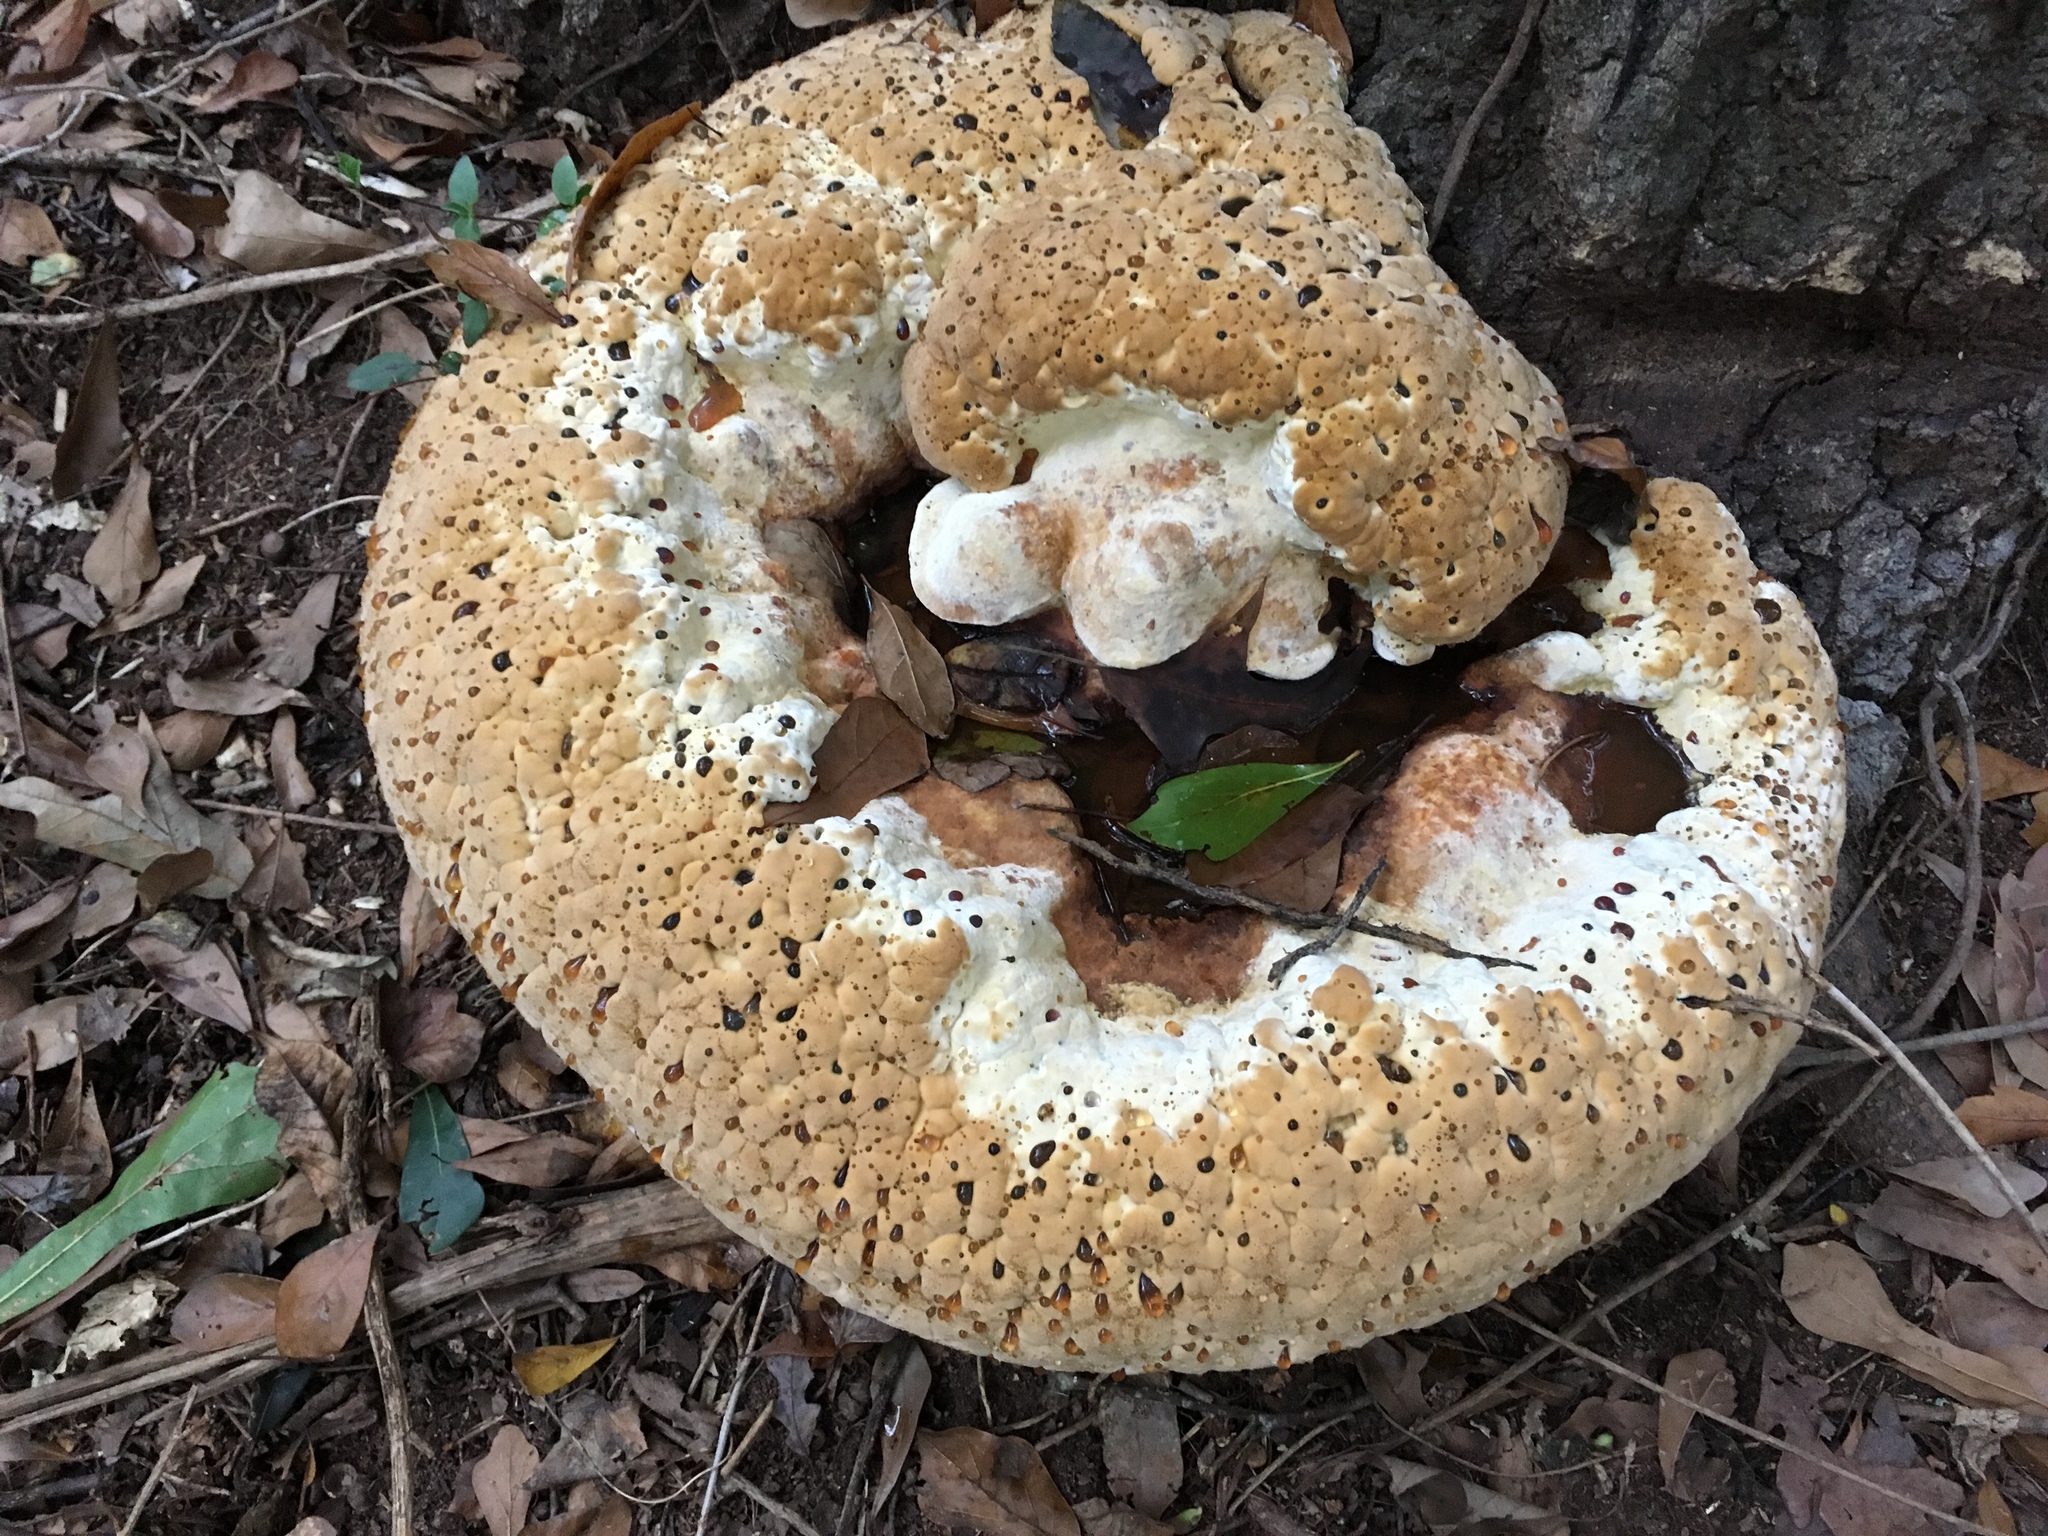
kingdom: Fungi
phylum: Basidiomycota
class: Agaricomycetes
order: Hymenochaetales
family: Hymenochaetaceae
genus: Pseudoinonotus
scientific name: Pseudoinonotus dryadeus
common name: Oak bracket
